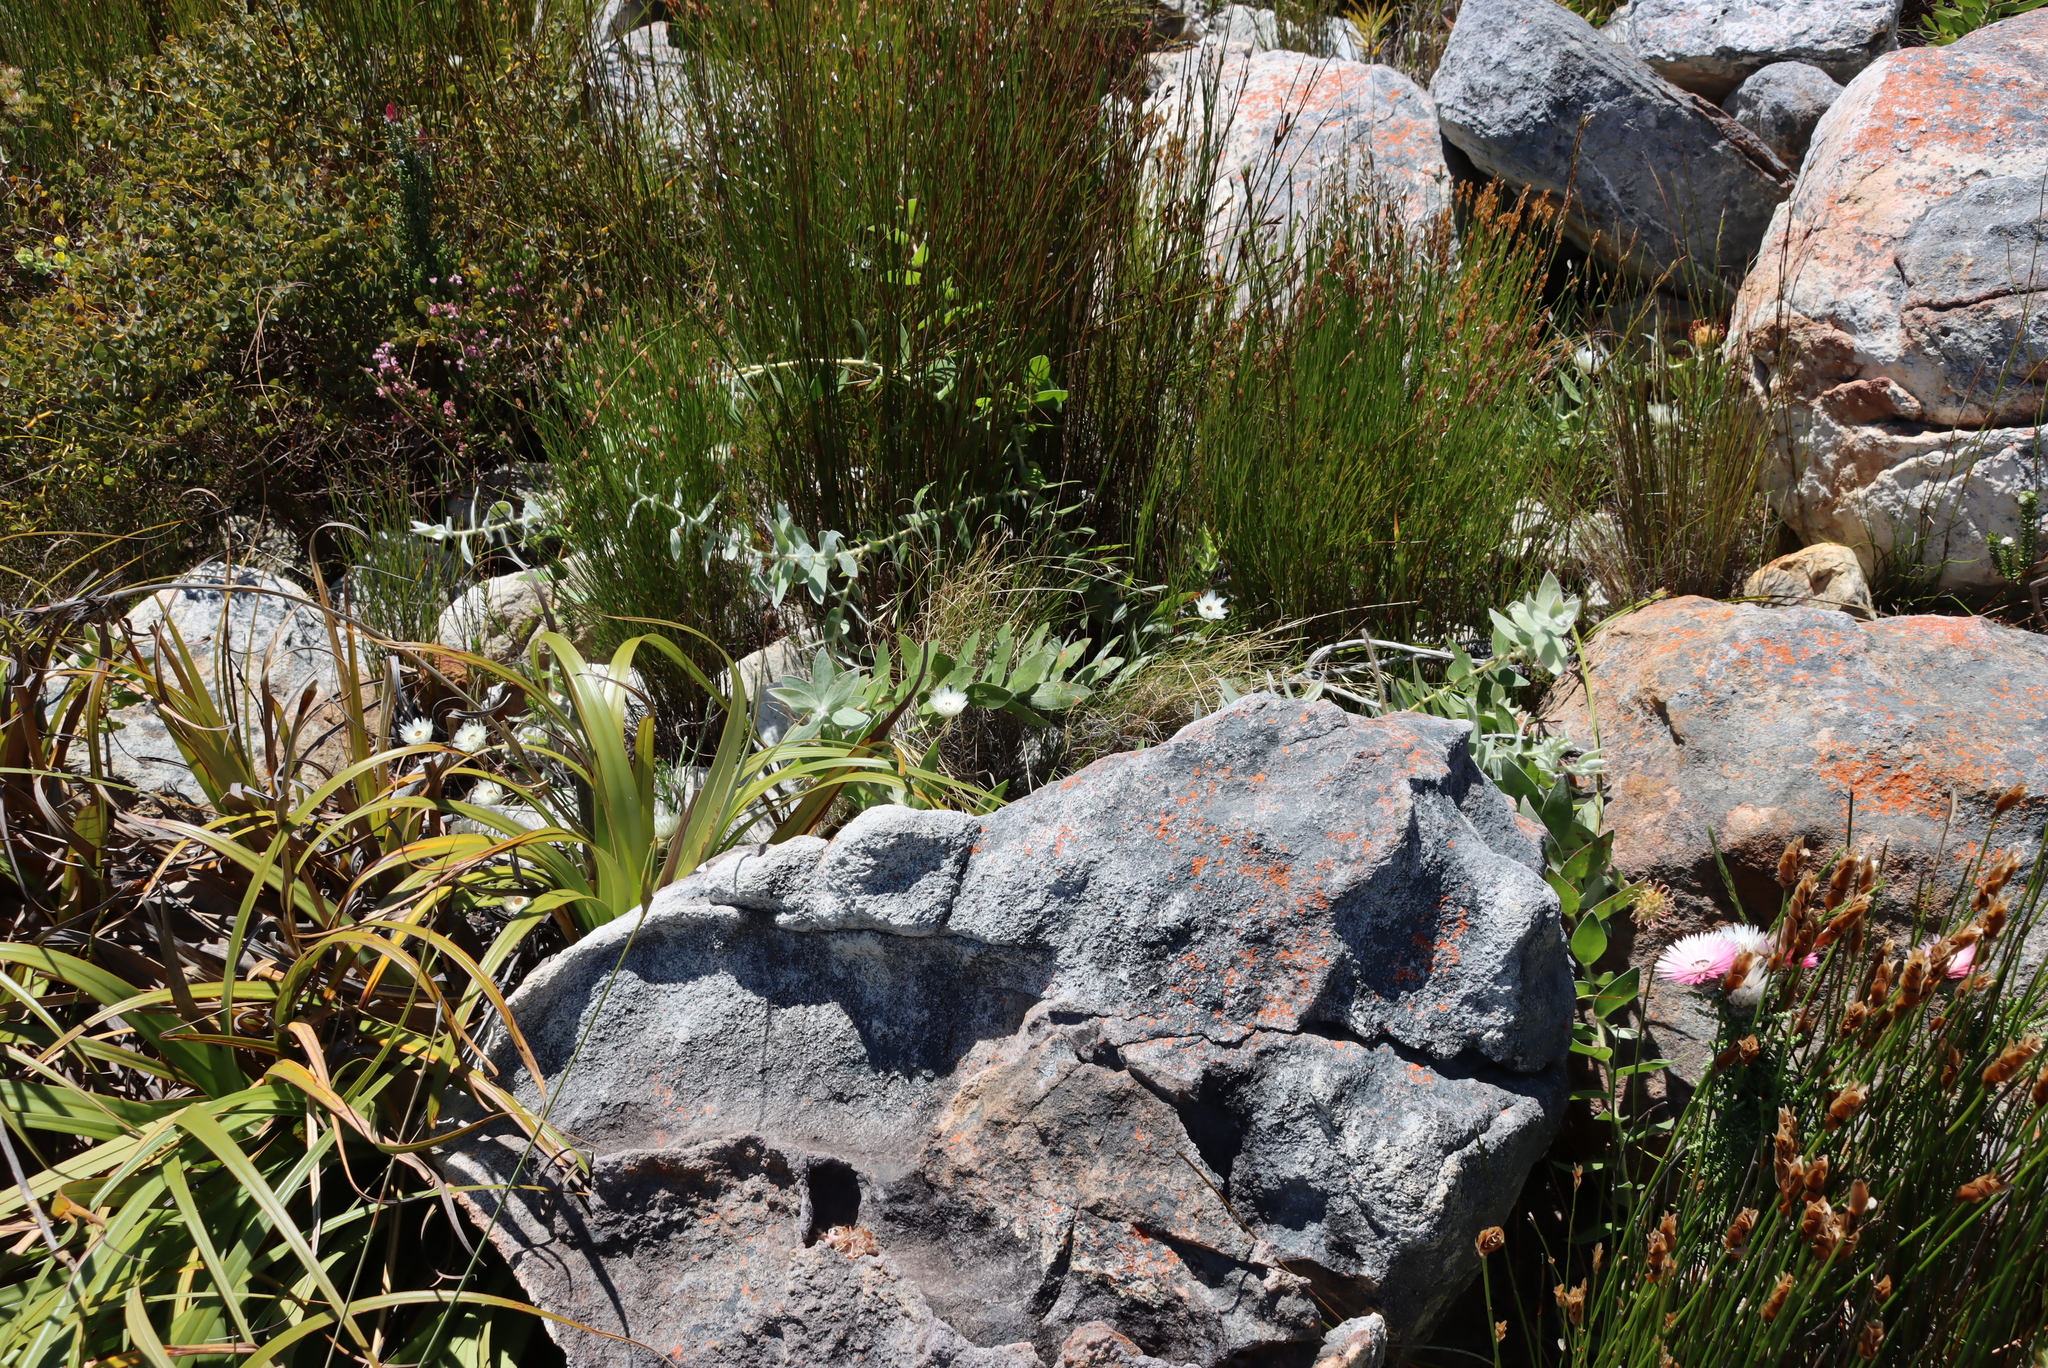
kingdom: Plantae
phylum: Tracheophyta
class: Magnoliopsida
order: Proteales
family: Proteaceae
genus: Leucospermum
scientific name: Leucospermum cordatum
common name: Heart-leaf pincushion
